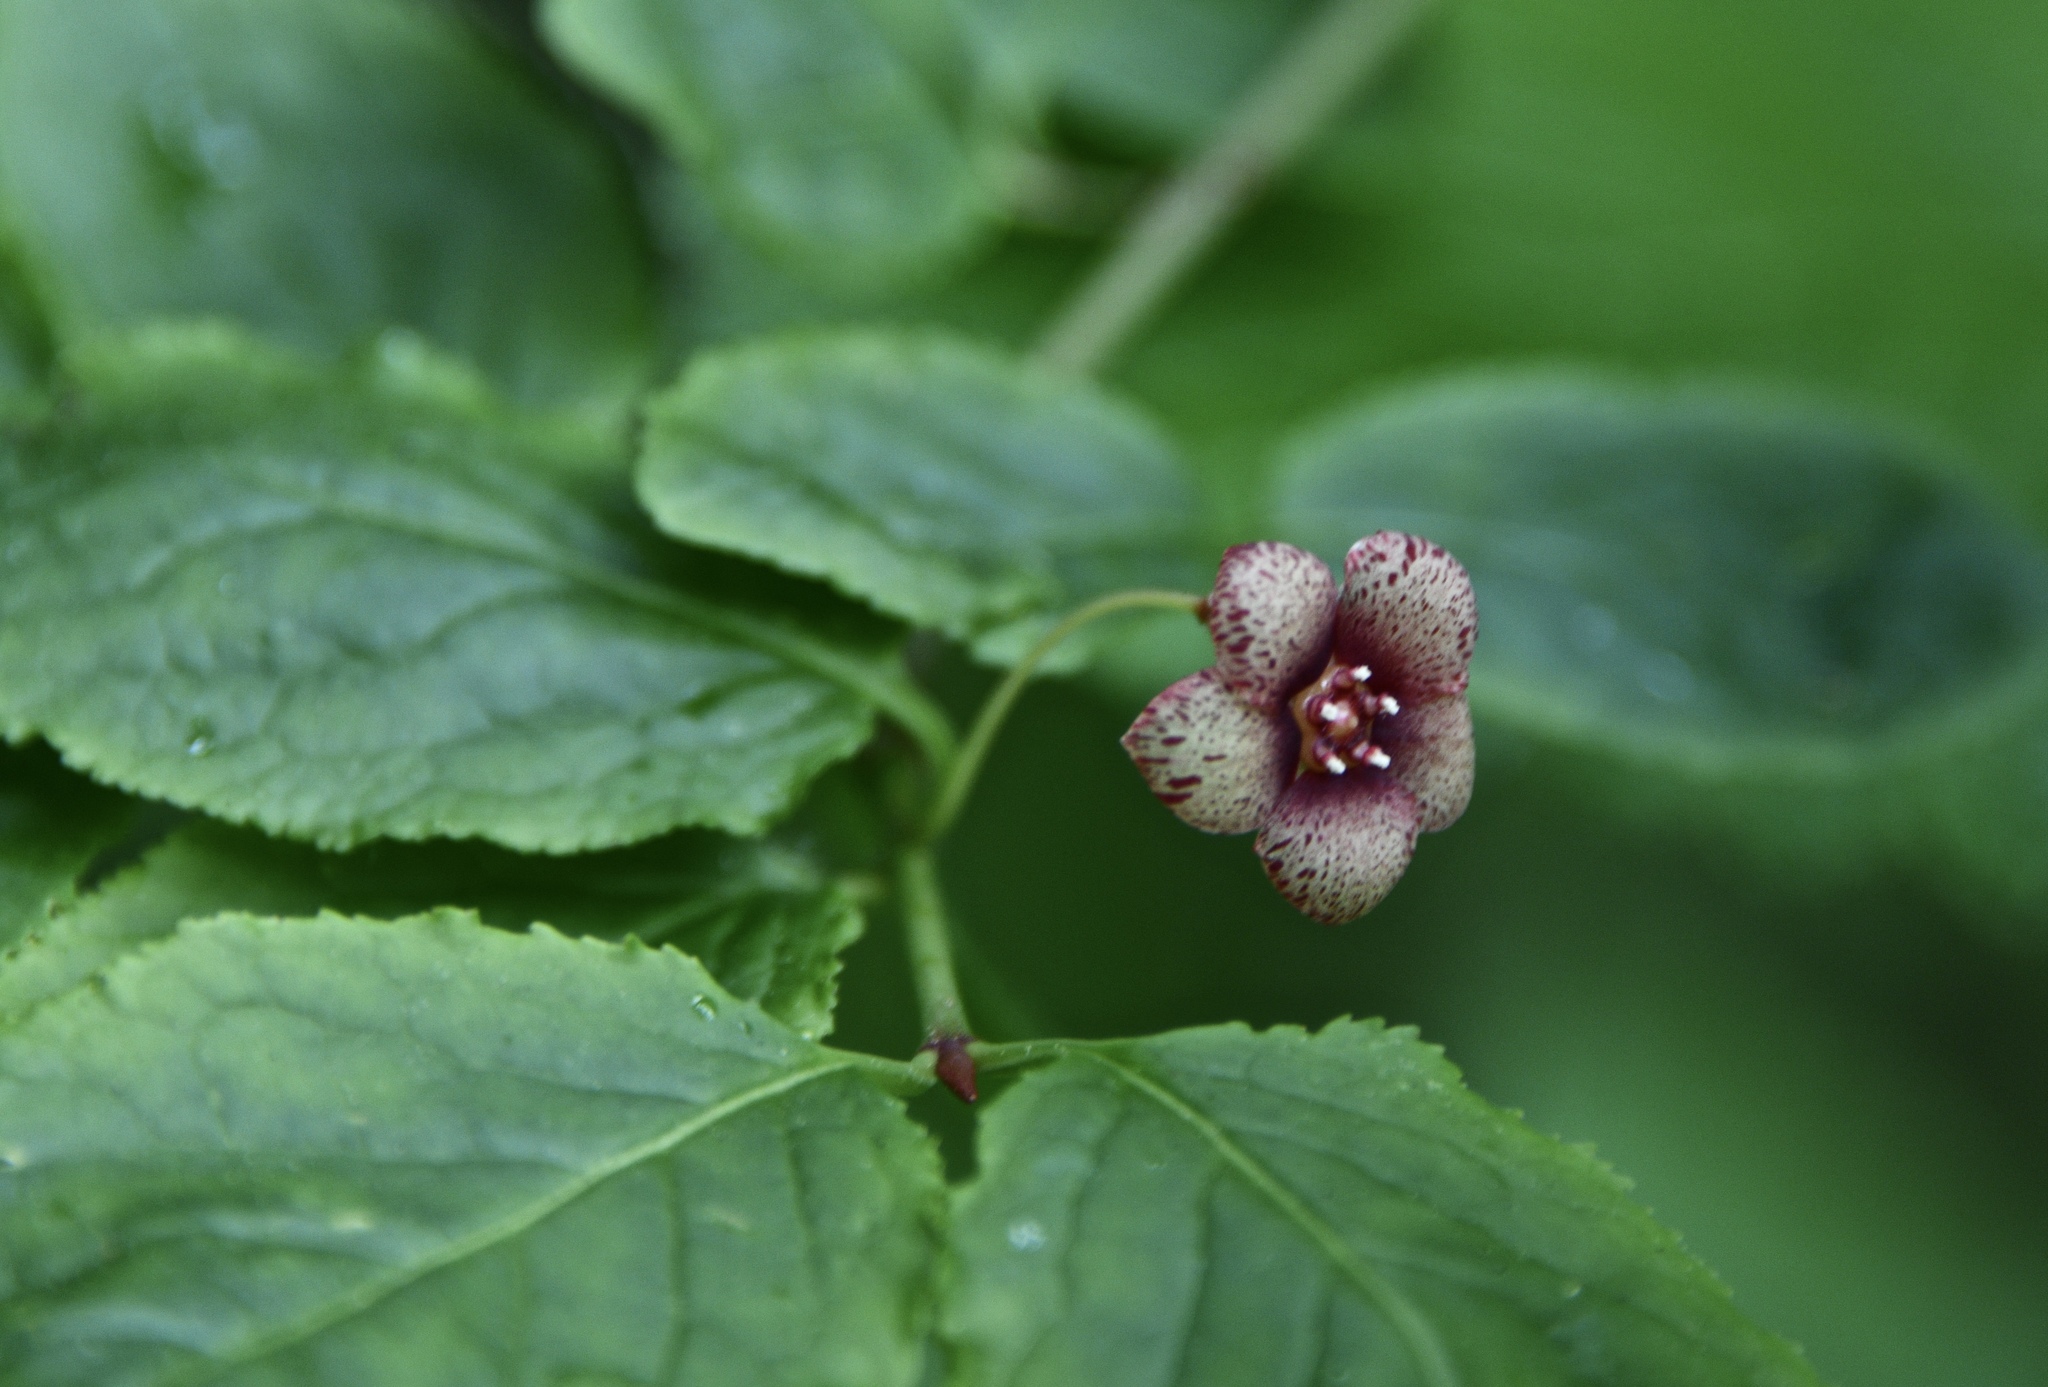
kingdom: Plantae
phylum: Tracheophyta
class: Magnoliopsida
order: Celastrales
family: Celastraceae
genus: Euonymus
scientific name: Euonymus occidentalis
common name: Western burningbush
